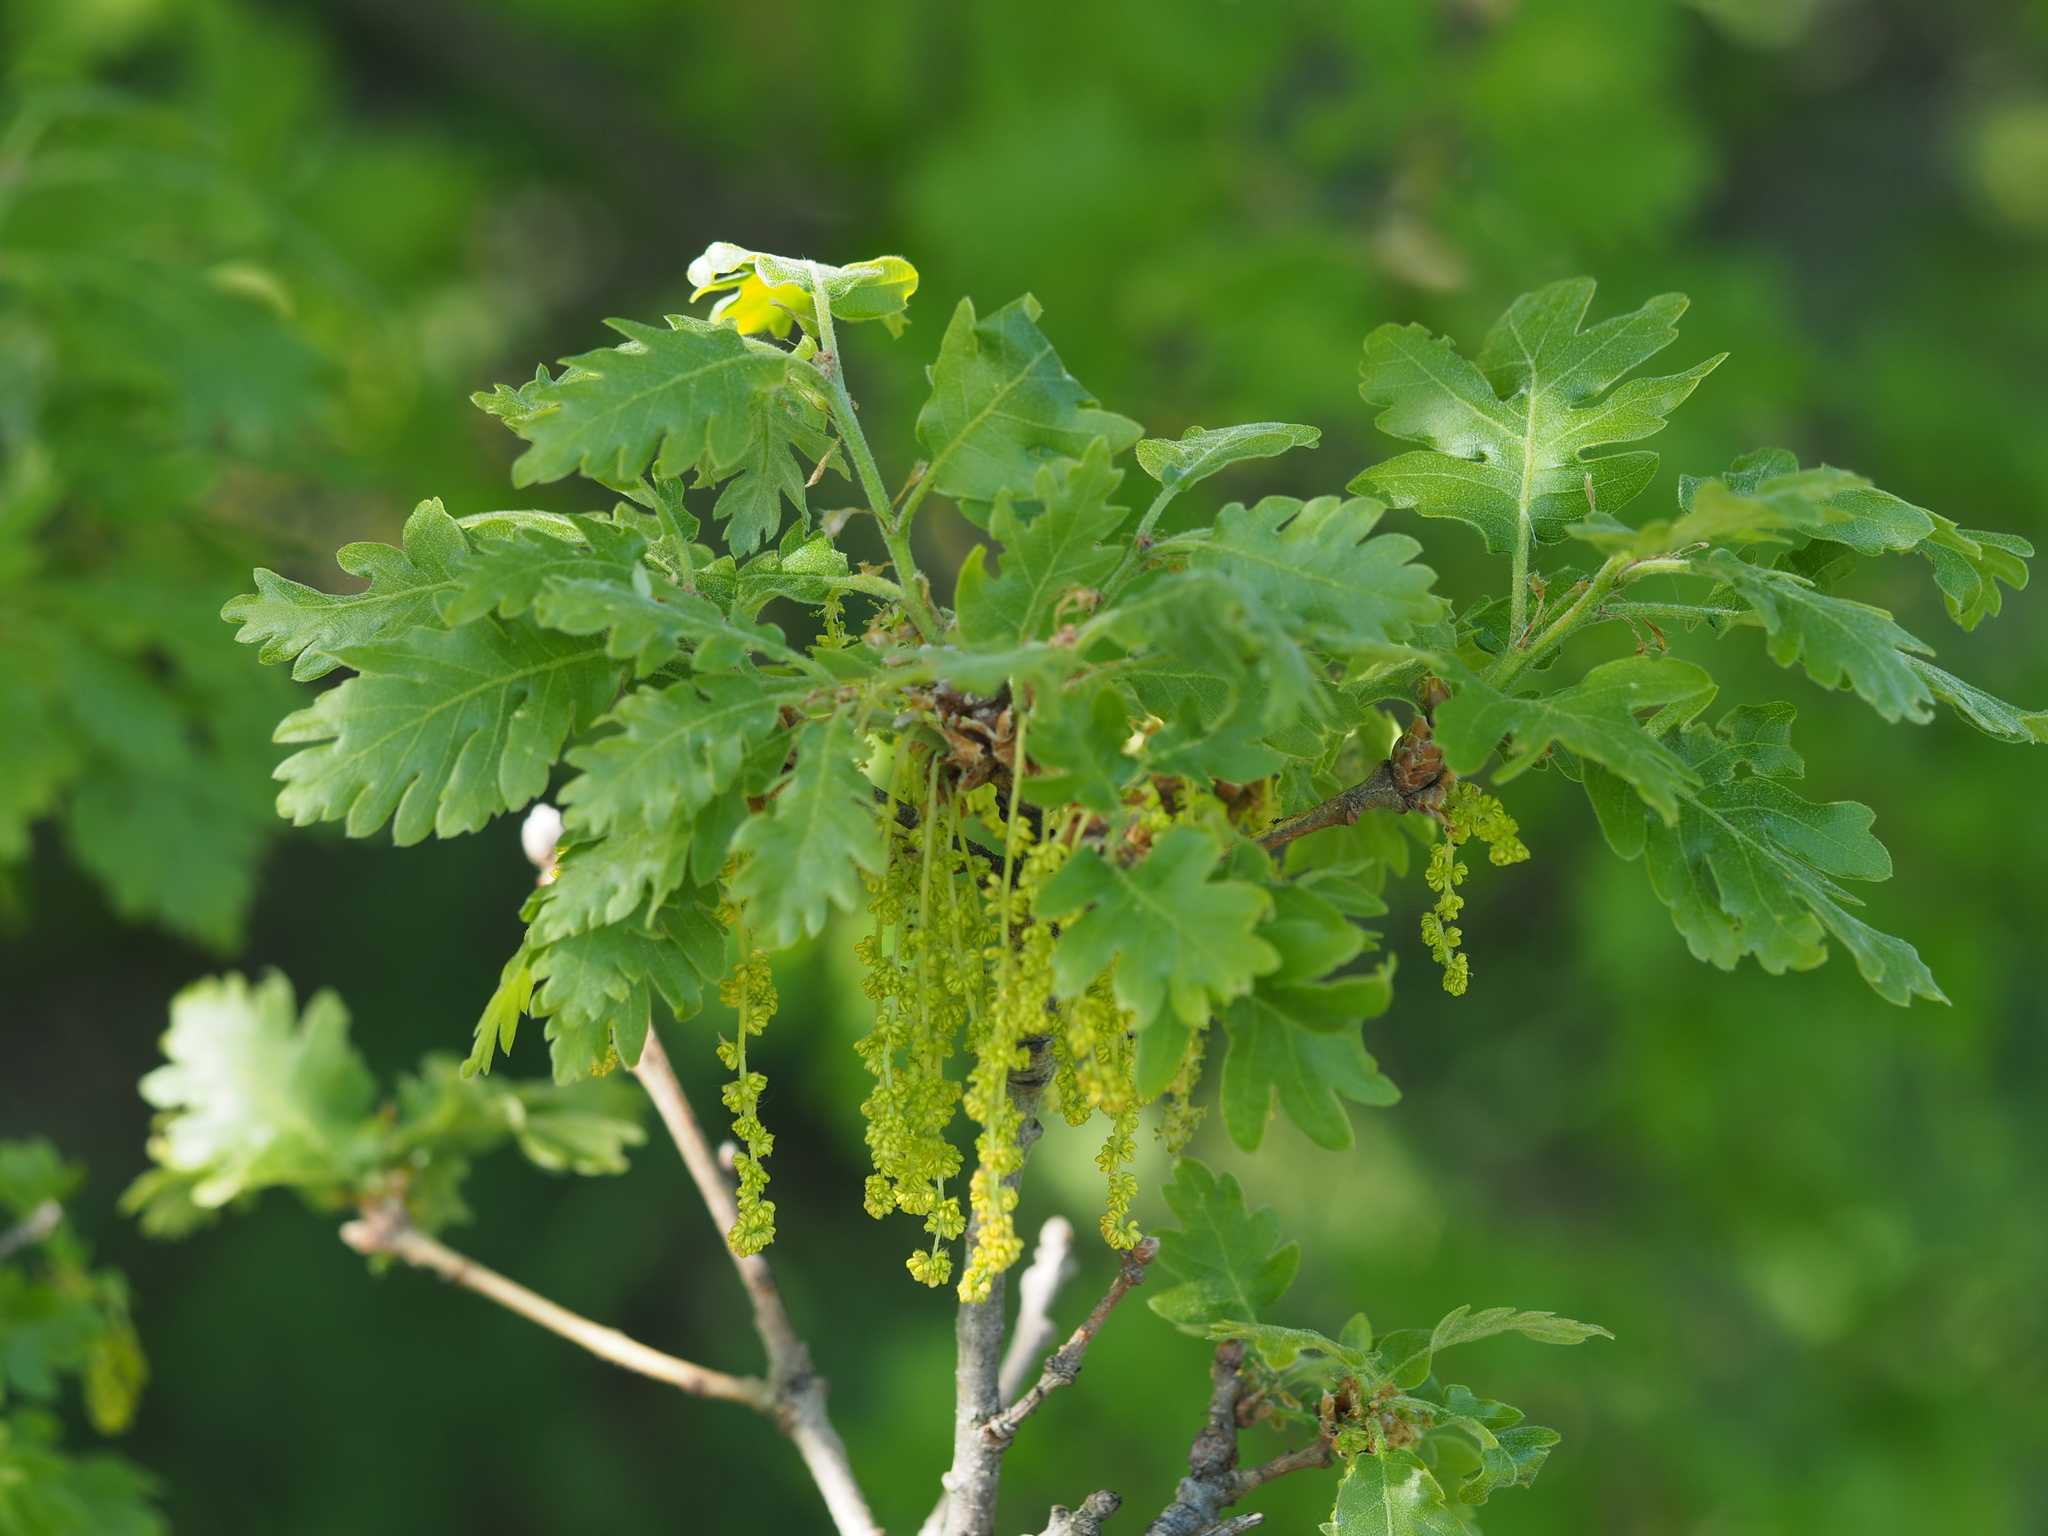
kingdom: Plantae
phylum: Tracheophyta
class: Magnoliopsida
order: Fagales
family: Fagaceae
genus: Quercus
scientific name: Quercus pubescens
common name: Downy oak
